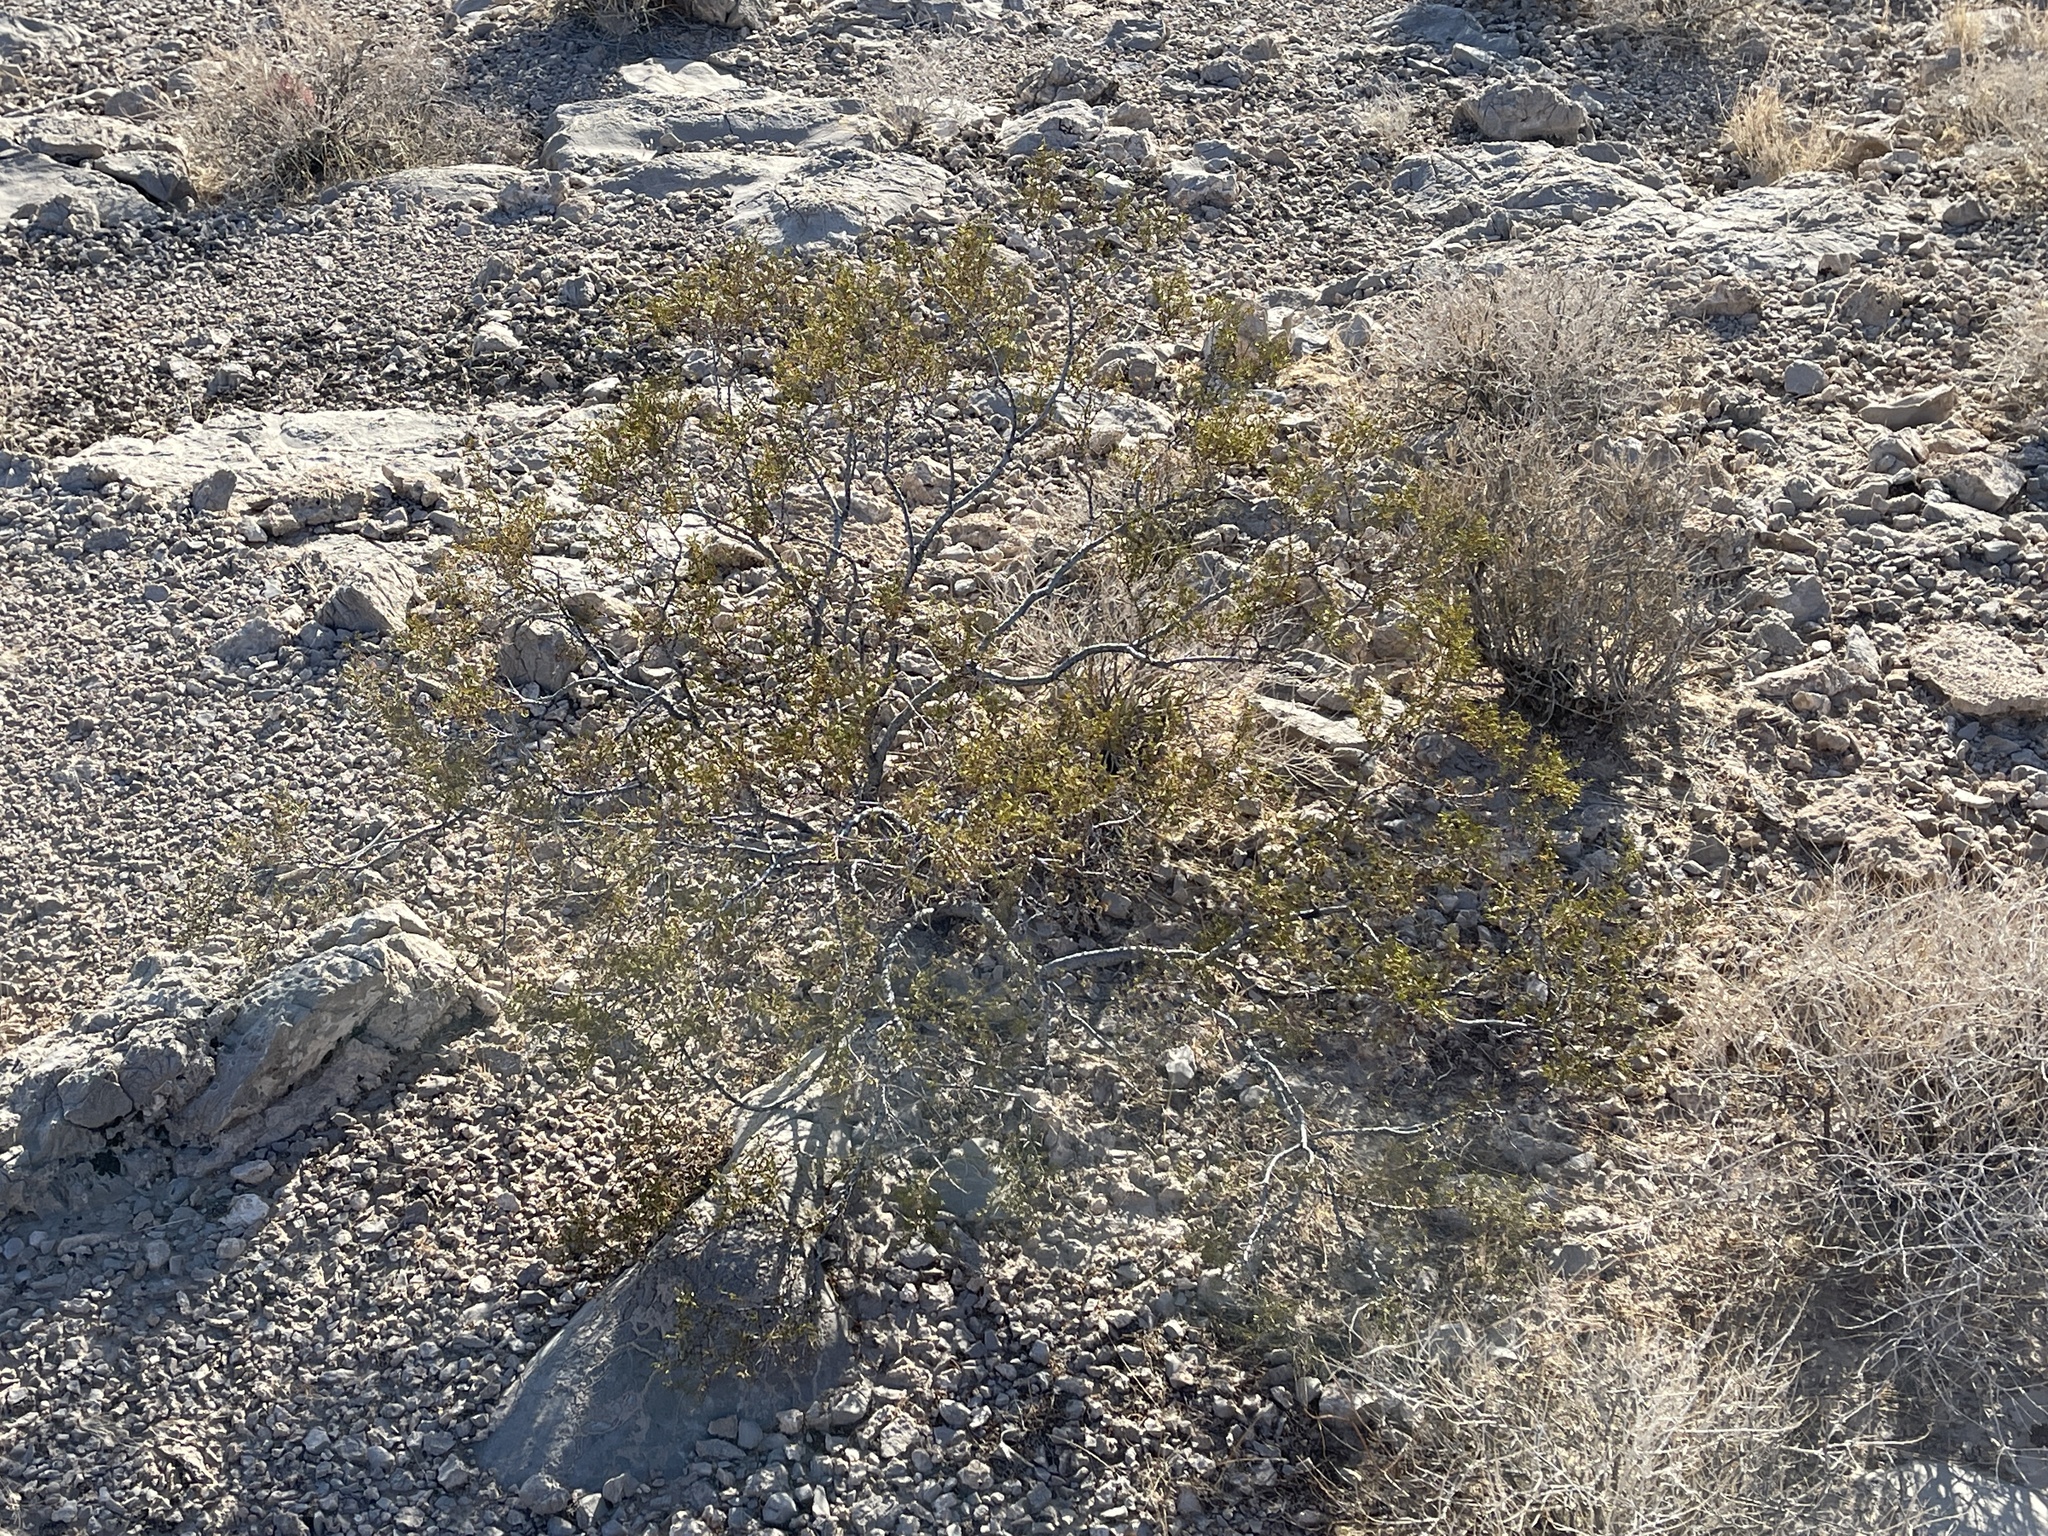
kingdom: Plantae
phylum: Tracheophyta
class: Magnoliopsida
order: Zygophyllales
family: Zygophyllaceae
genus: Larrea
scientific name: Larrea tridentata
